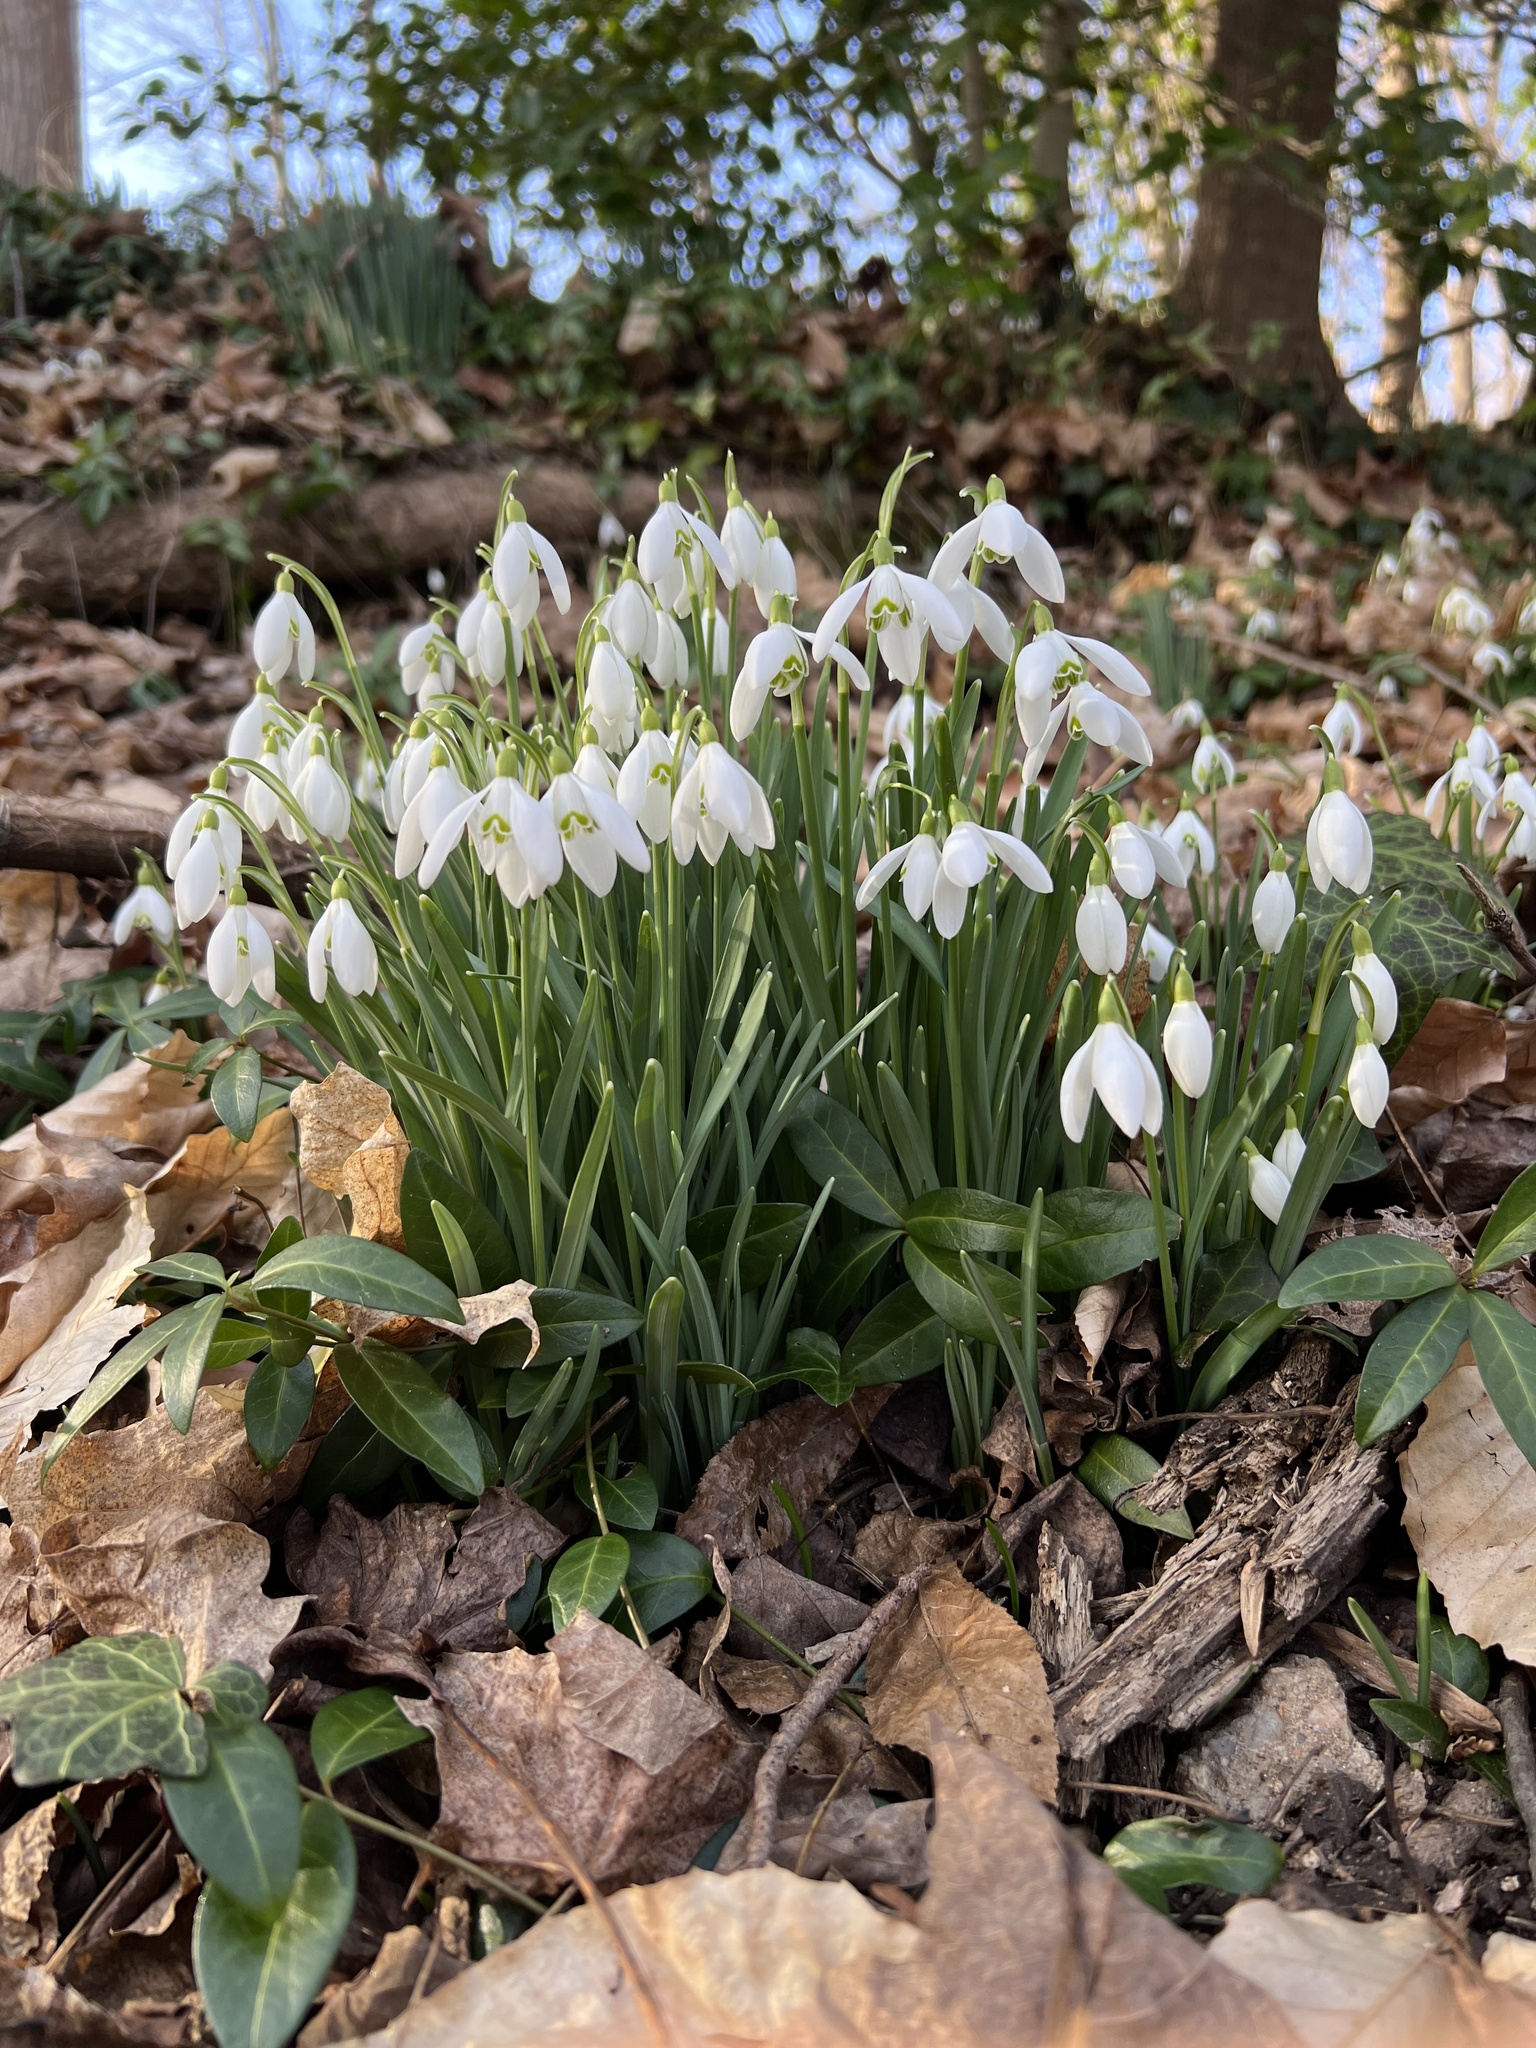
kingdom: Plantae
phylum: Tracheophyta
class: Liliopsida
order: Asparagales
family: Amaryllidaceae
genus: Galanthus
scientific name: Galanthus nivalis
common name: Snowdrop
